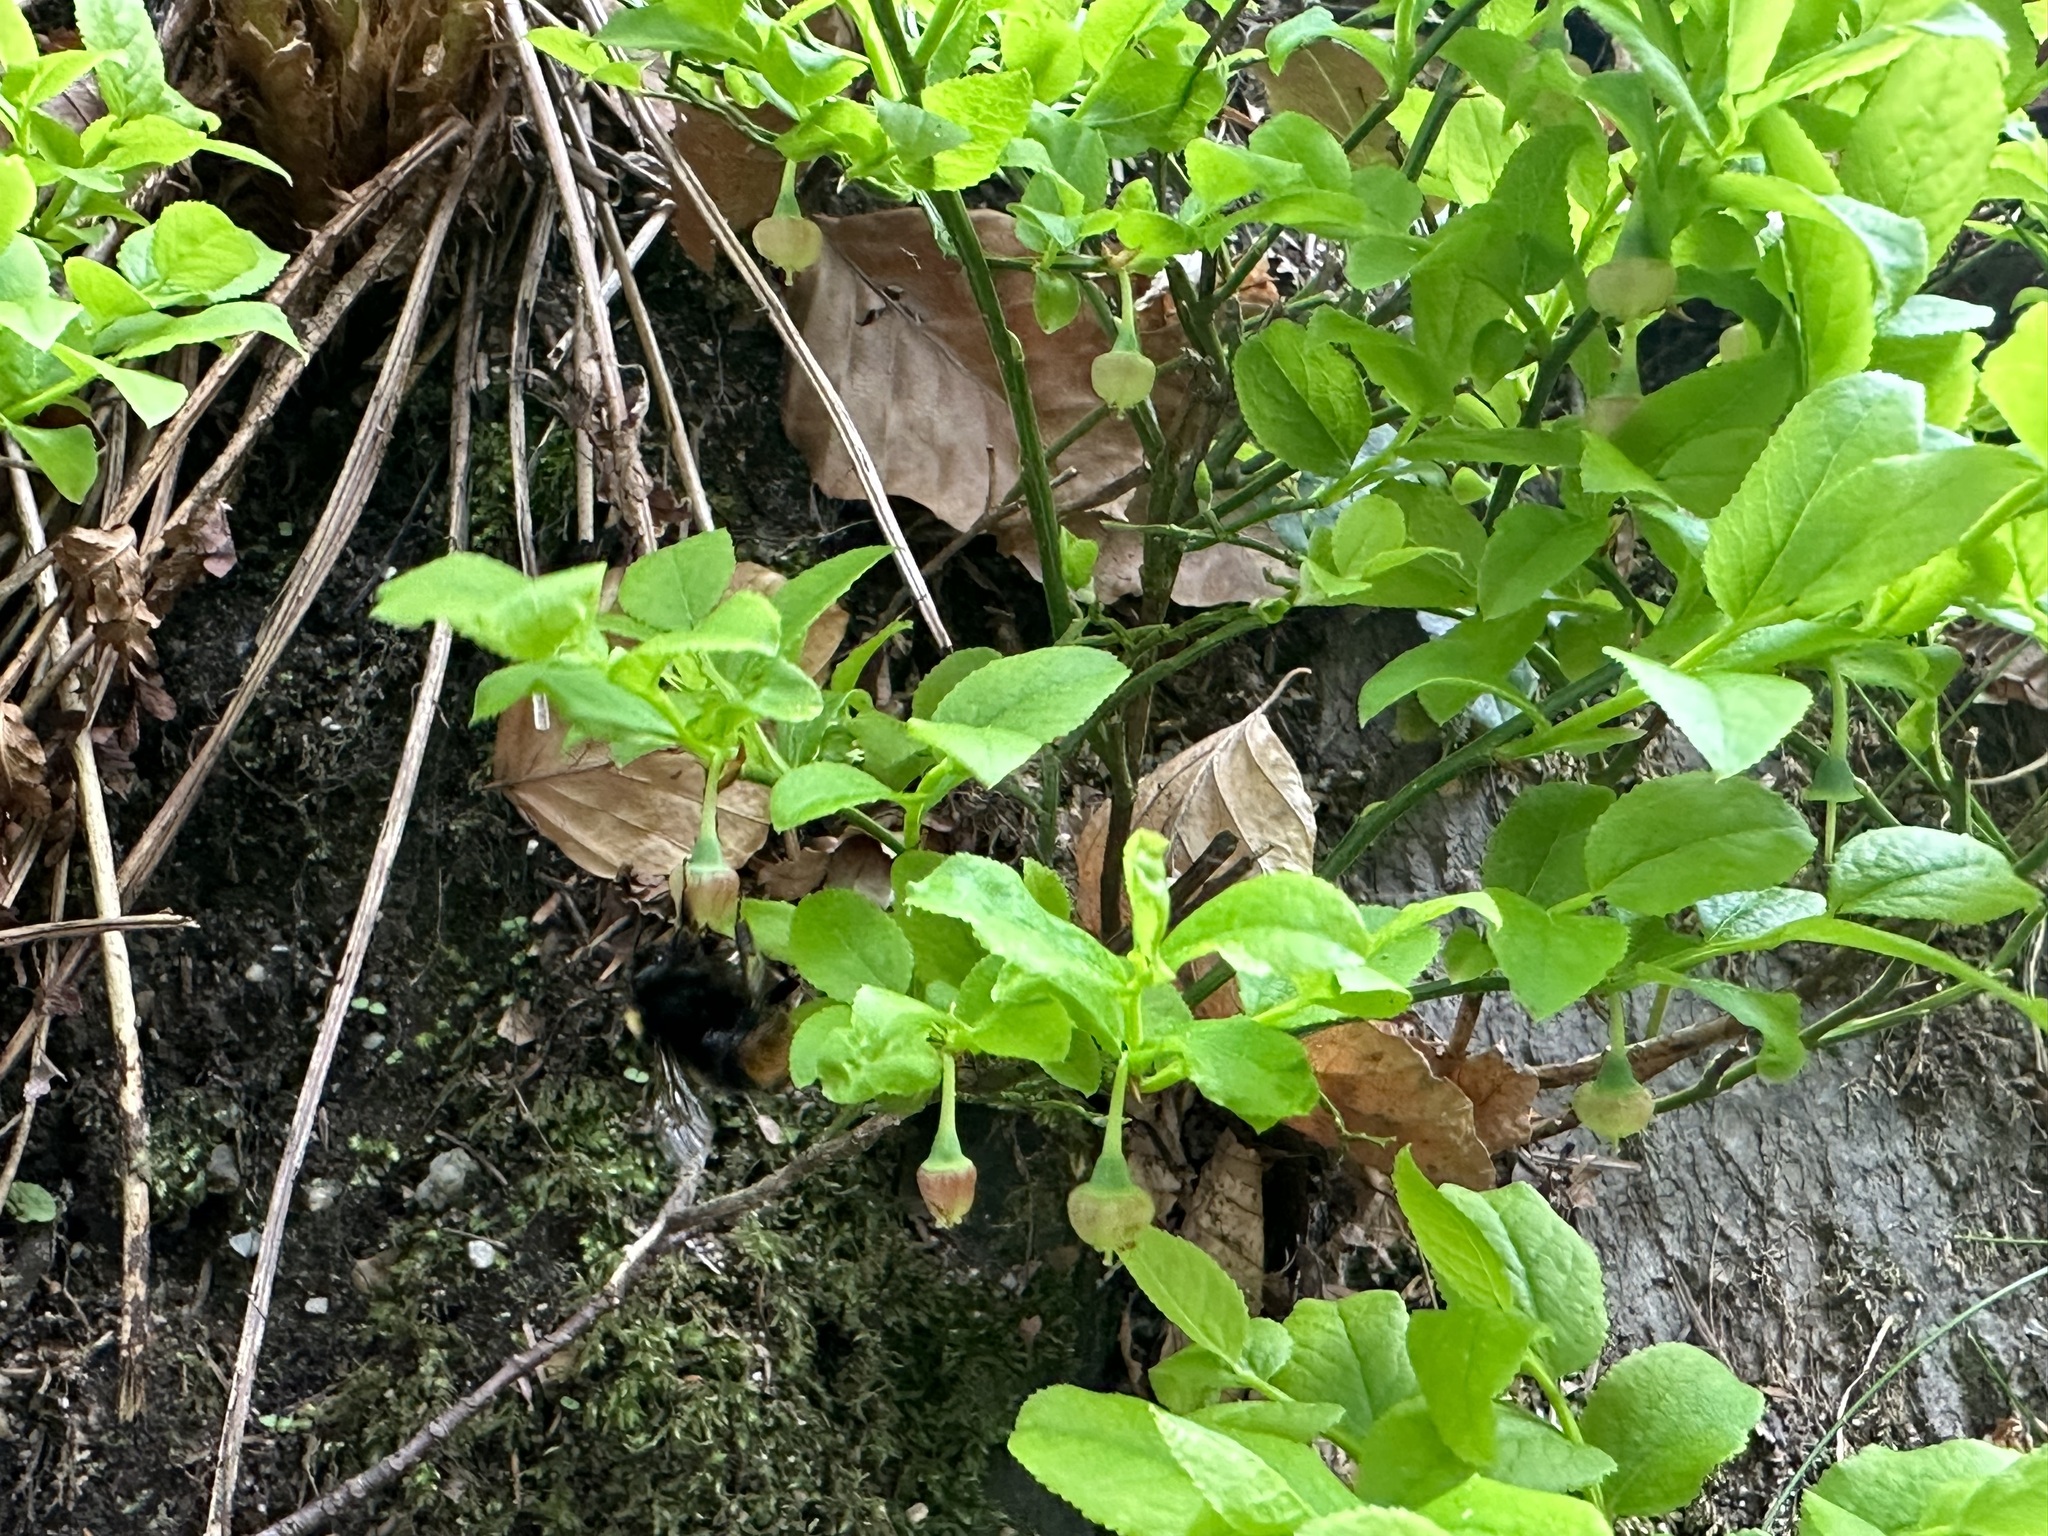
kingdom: Animalia
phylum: Arthropoda
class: Insecta
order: Hymenoptera
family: Apidae
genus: Bombus
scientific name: Bombus pratorum
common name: Early humble-bee
